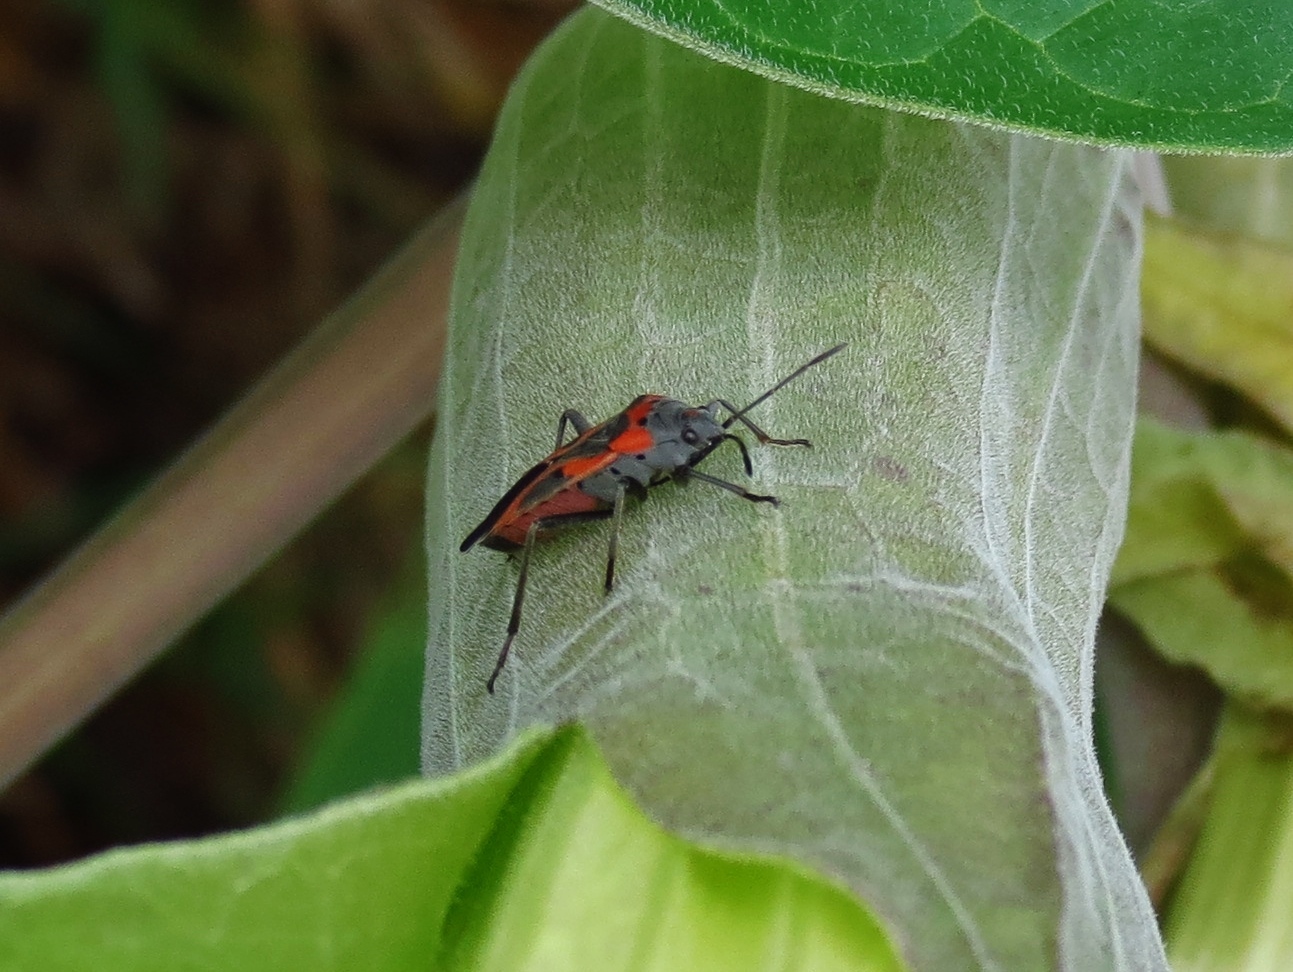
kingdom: Animalia
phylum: Arthropoda
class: Insecta
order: Hemiptera
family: Lygaeidae
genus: Lygaeus
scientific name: Lygaeus kalmii
